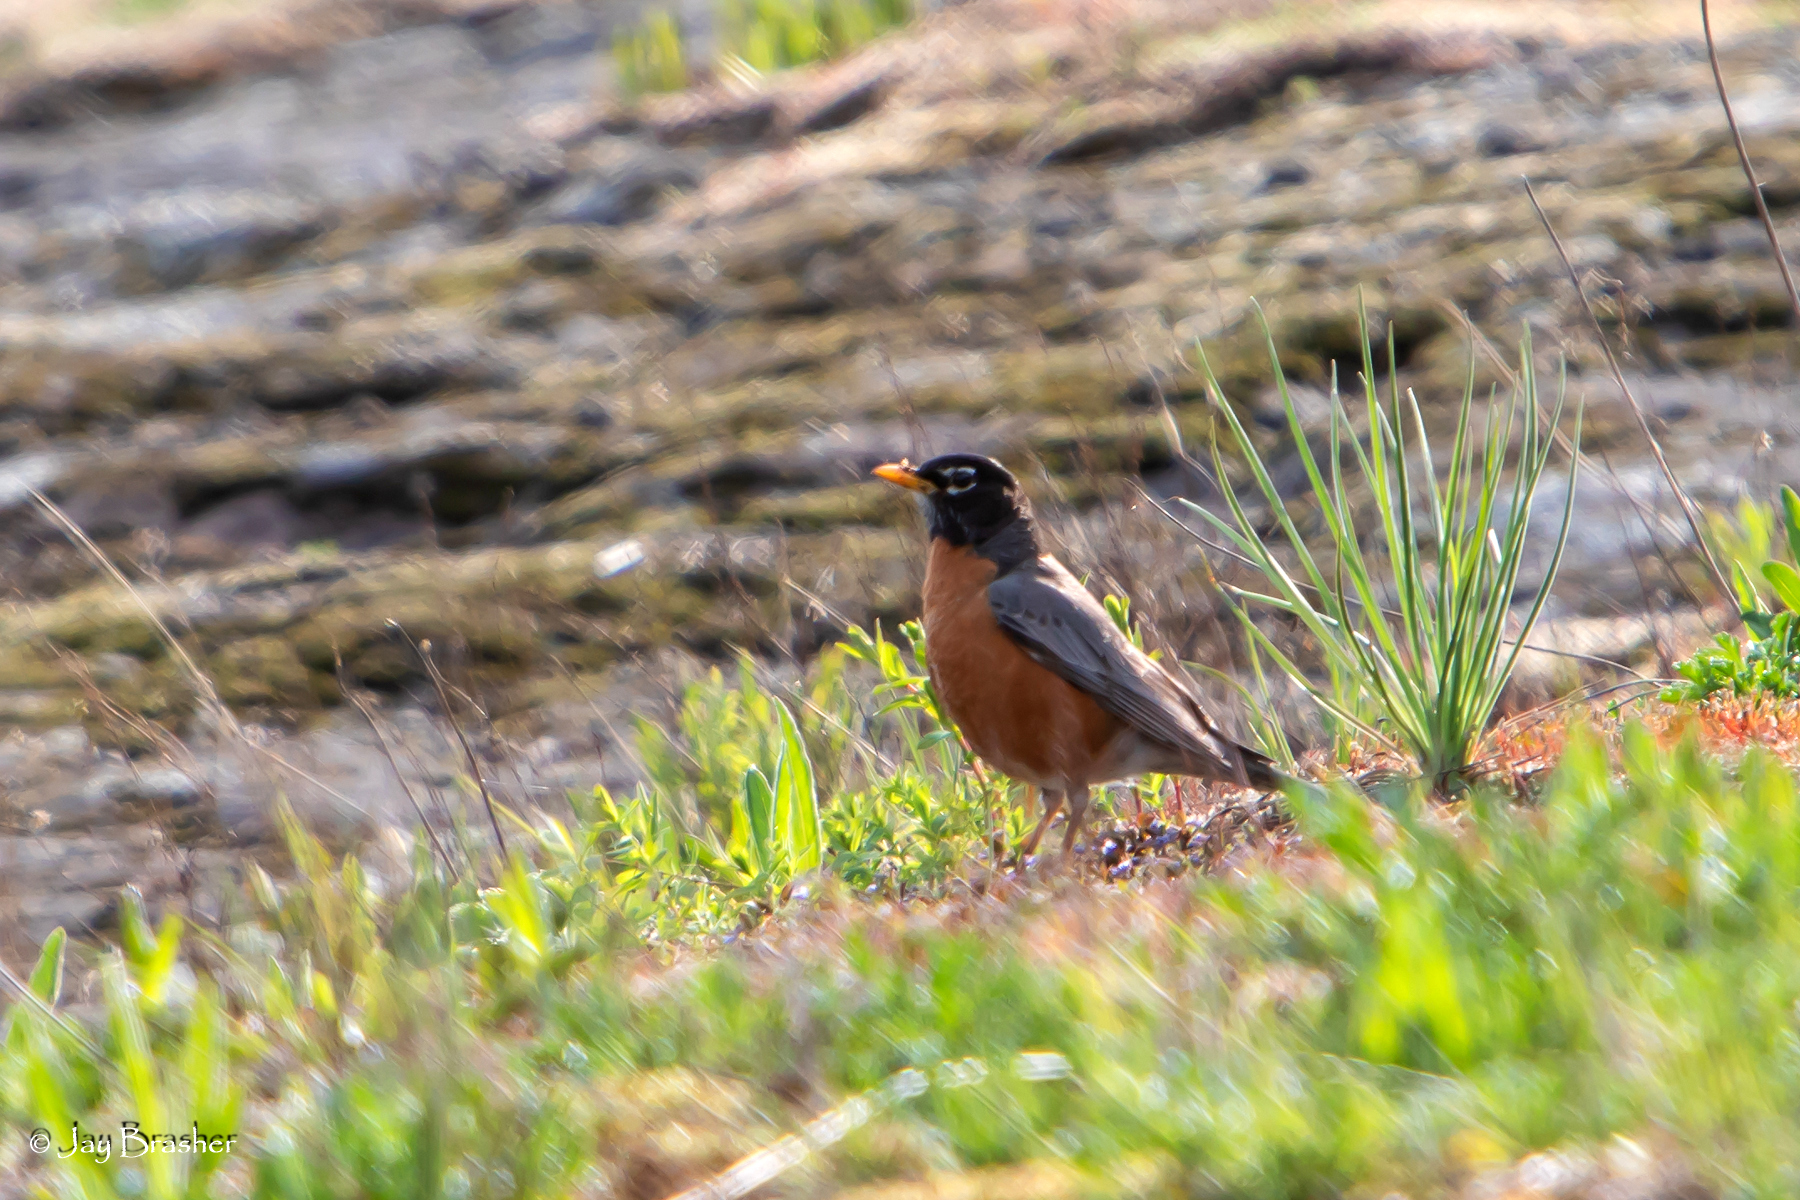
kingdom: Animalia
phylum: Chordata
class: Aves
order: Passeriformes
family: Turdidae
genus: Turdus
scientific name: Turdus migratorius
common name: American robin
